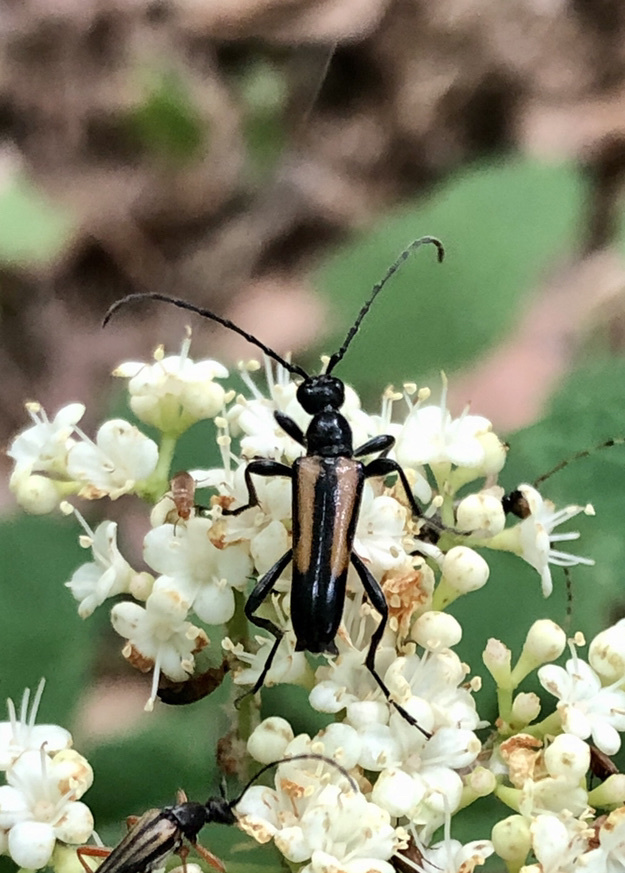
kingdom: Animalia
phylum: Arthropoda
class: Insecta
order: Coleoptera
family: Cerambycidae
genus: Strangalepta
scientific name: Strangalepta abbreviata
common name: Strangalepta flower longhorn beetle
